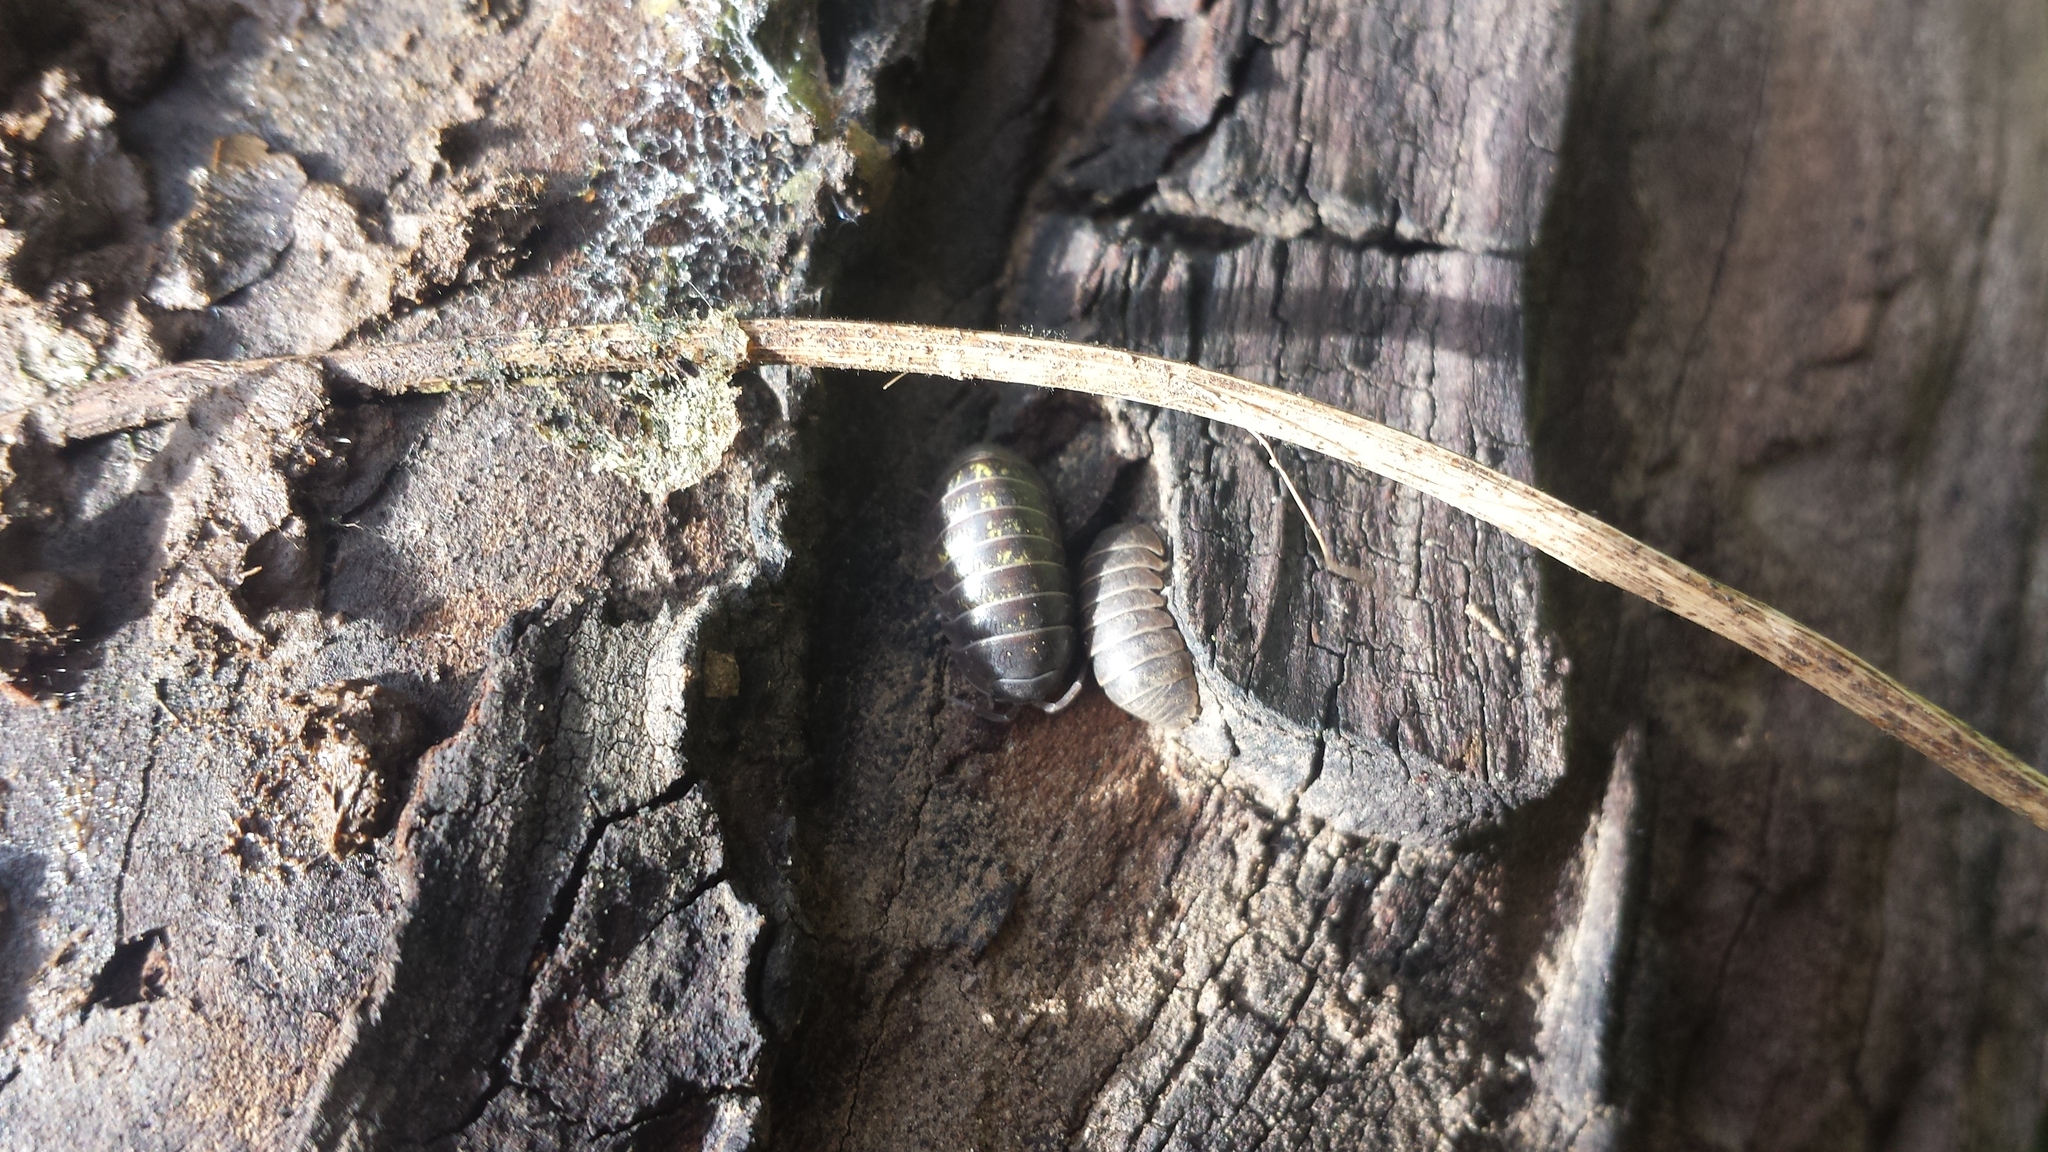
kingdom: Animalia
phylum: Arthropoda
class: Malacostraca
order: Isopoda
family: Armadillidiidae
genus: Armadillidium
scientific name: Armadillidium vulgare
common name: Common pill woodlouse
